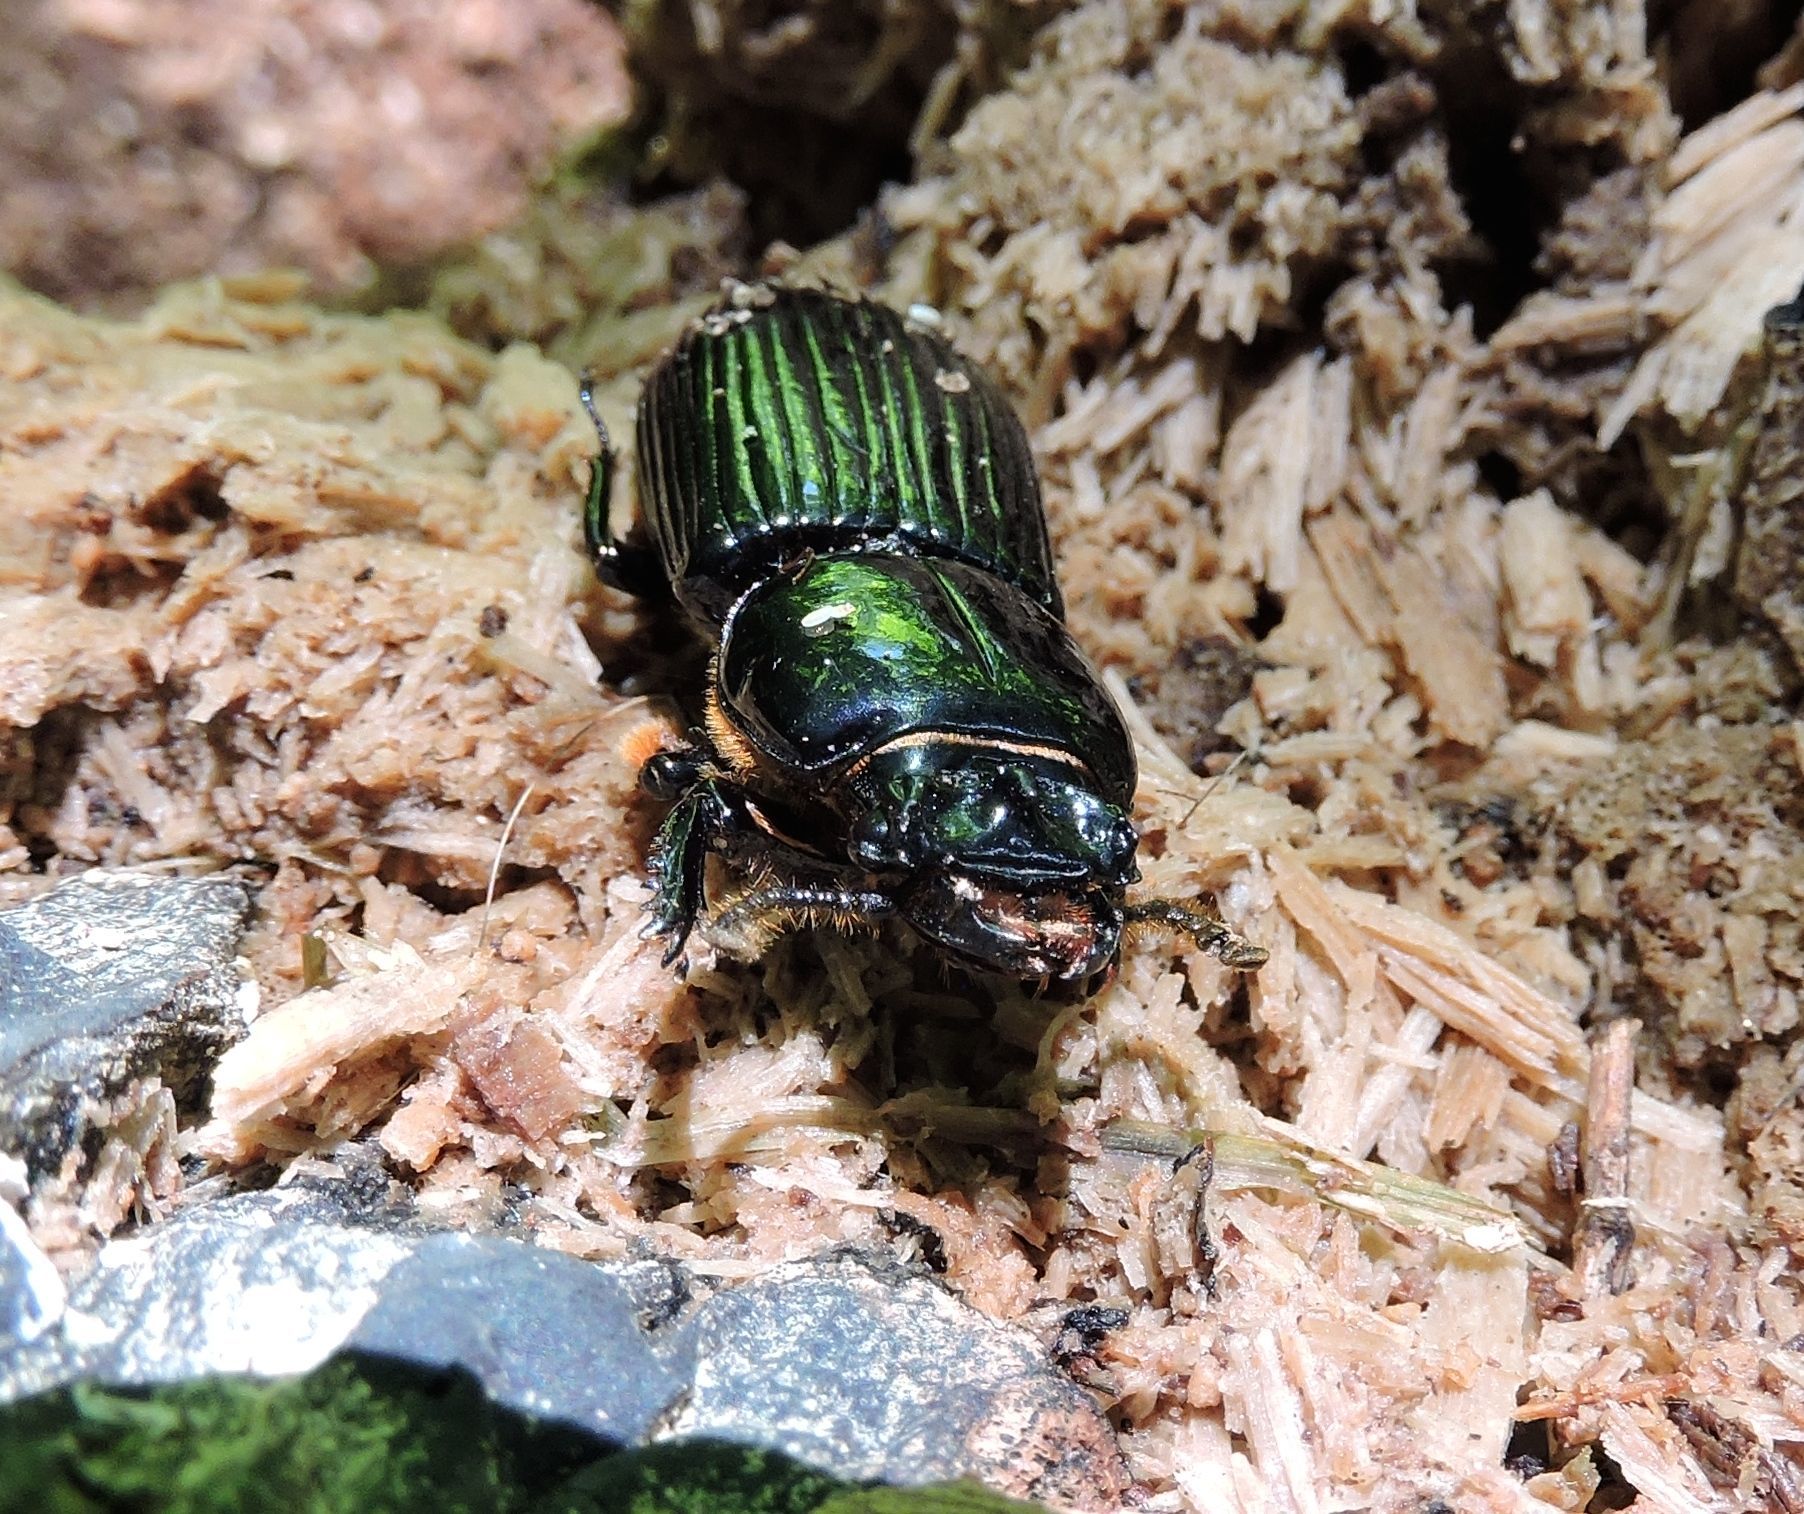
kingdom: Animalia
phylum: Arthropoda
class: Insecta
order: Coleoptera
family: Passalidae
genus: Odontotaenius
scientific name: Odontotaenius disjunctus
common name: Patent leather beetle
